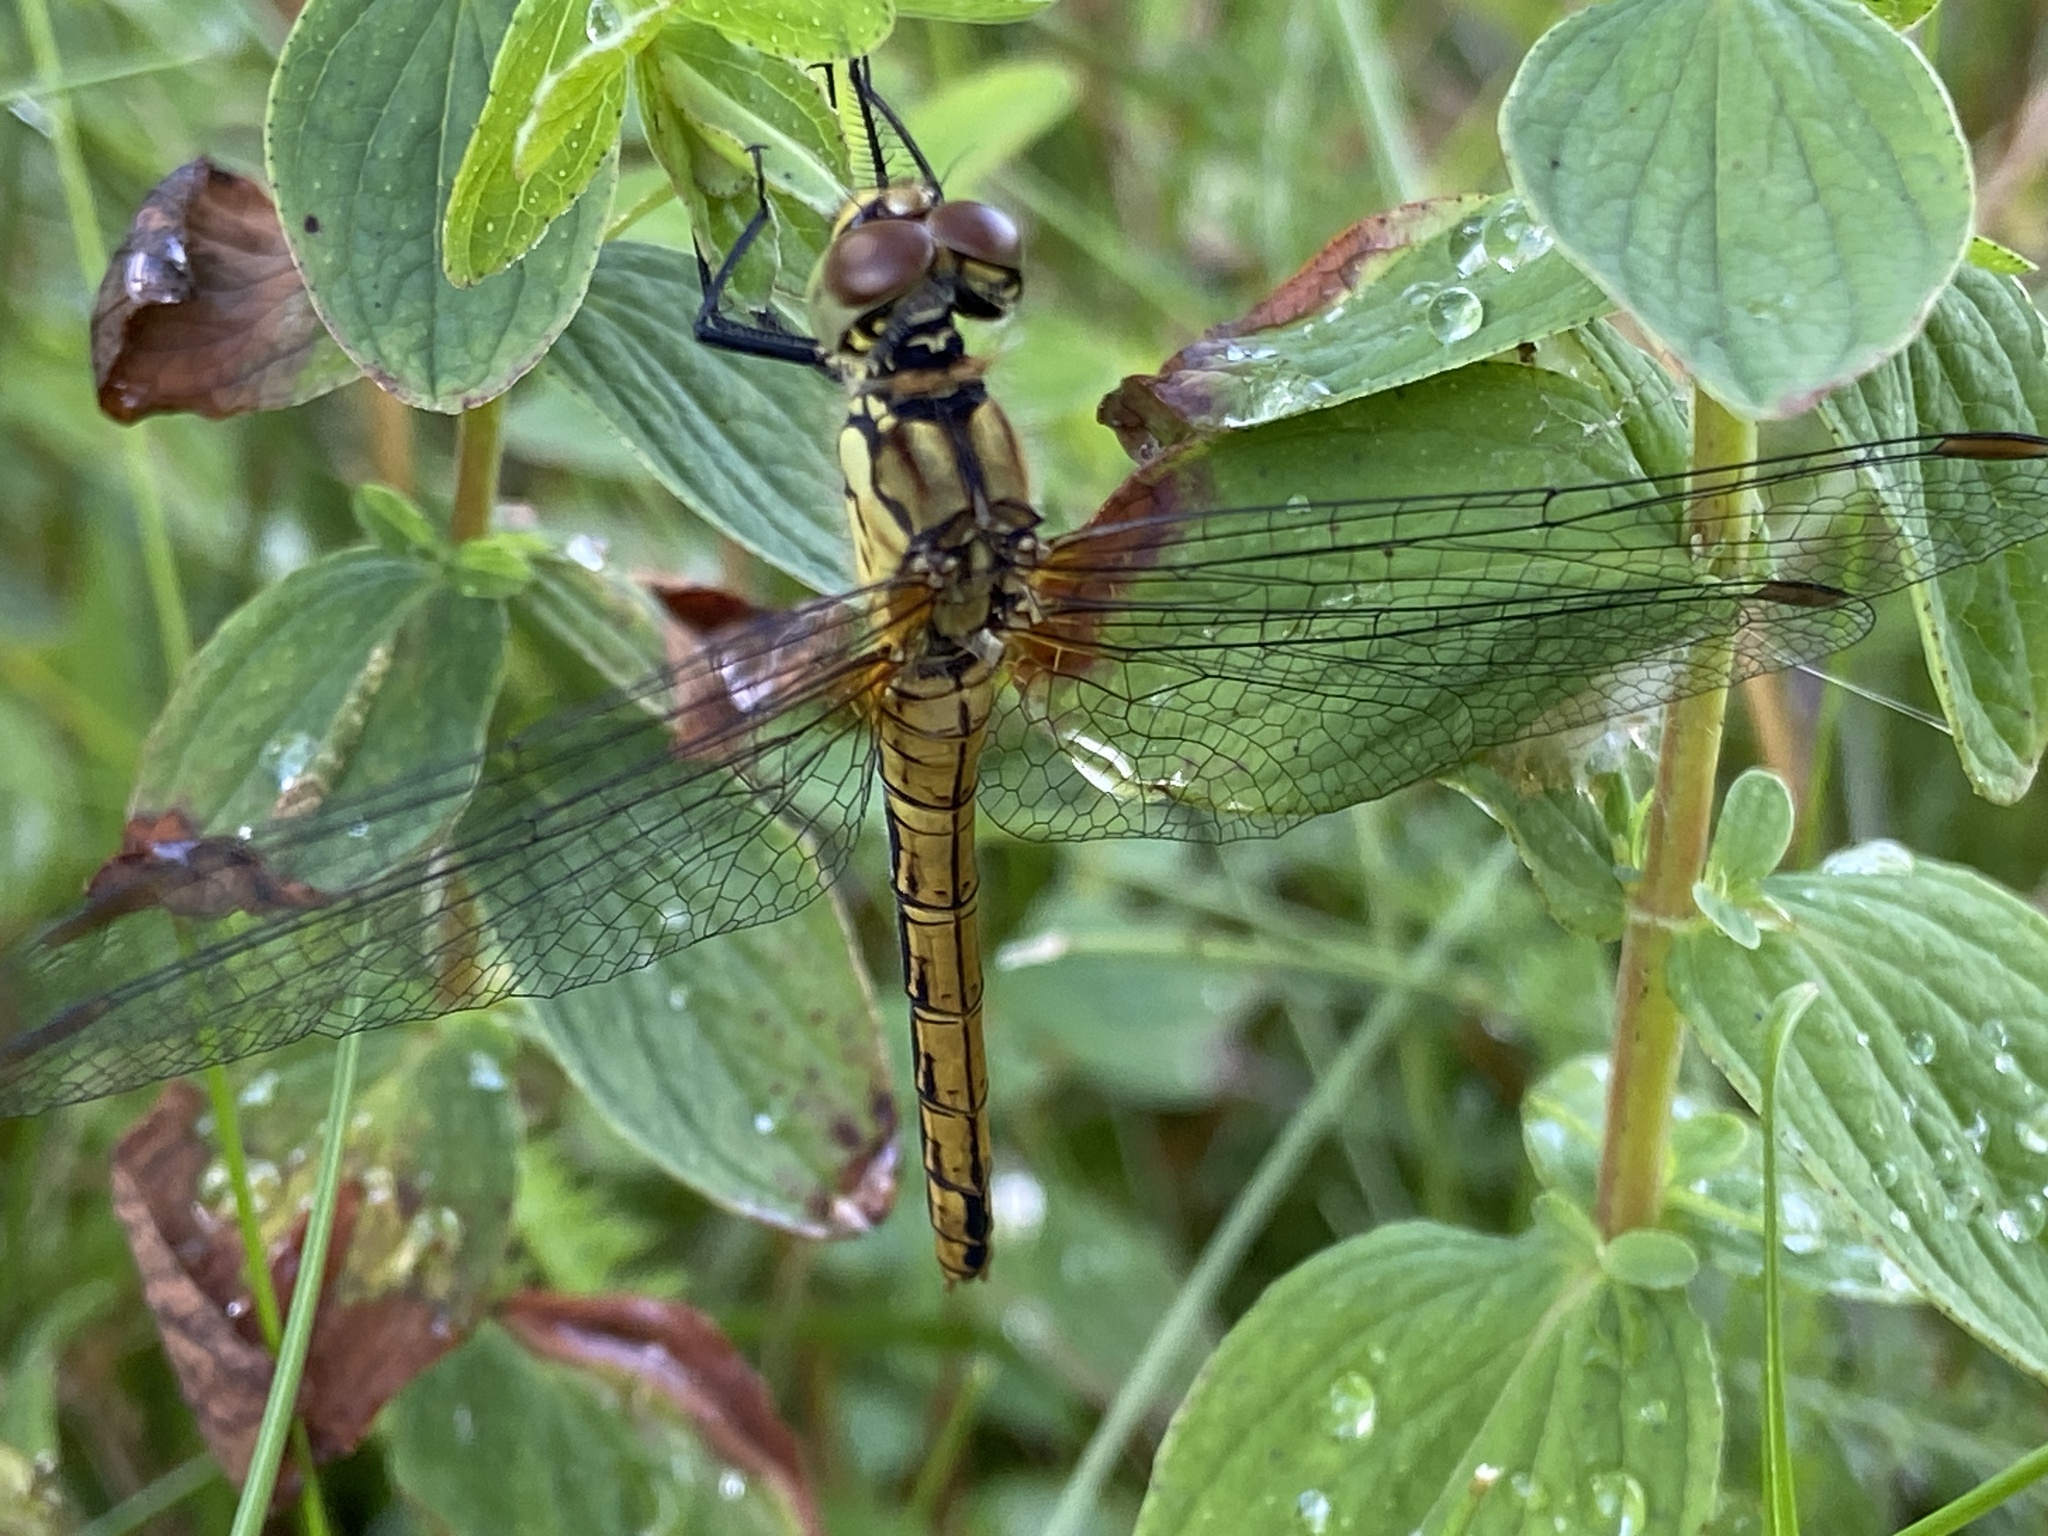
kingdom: Animalia
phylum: Arthropoda
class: Insecta
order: Odonata
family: Libellulidae
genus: Sympetrum
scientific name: Sympetrum sanguineum
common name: Ruddy darter
